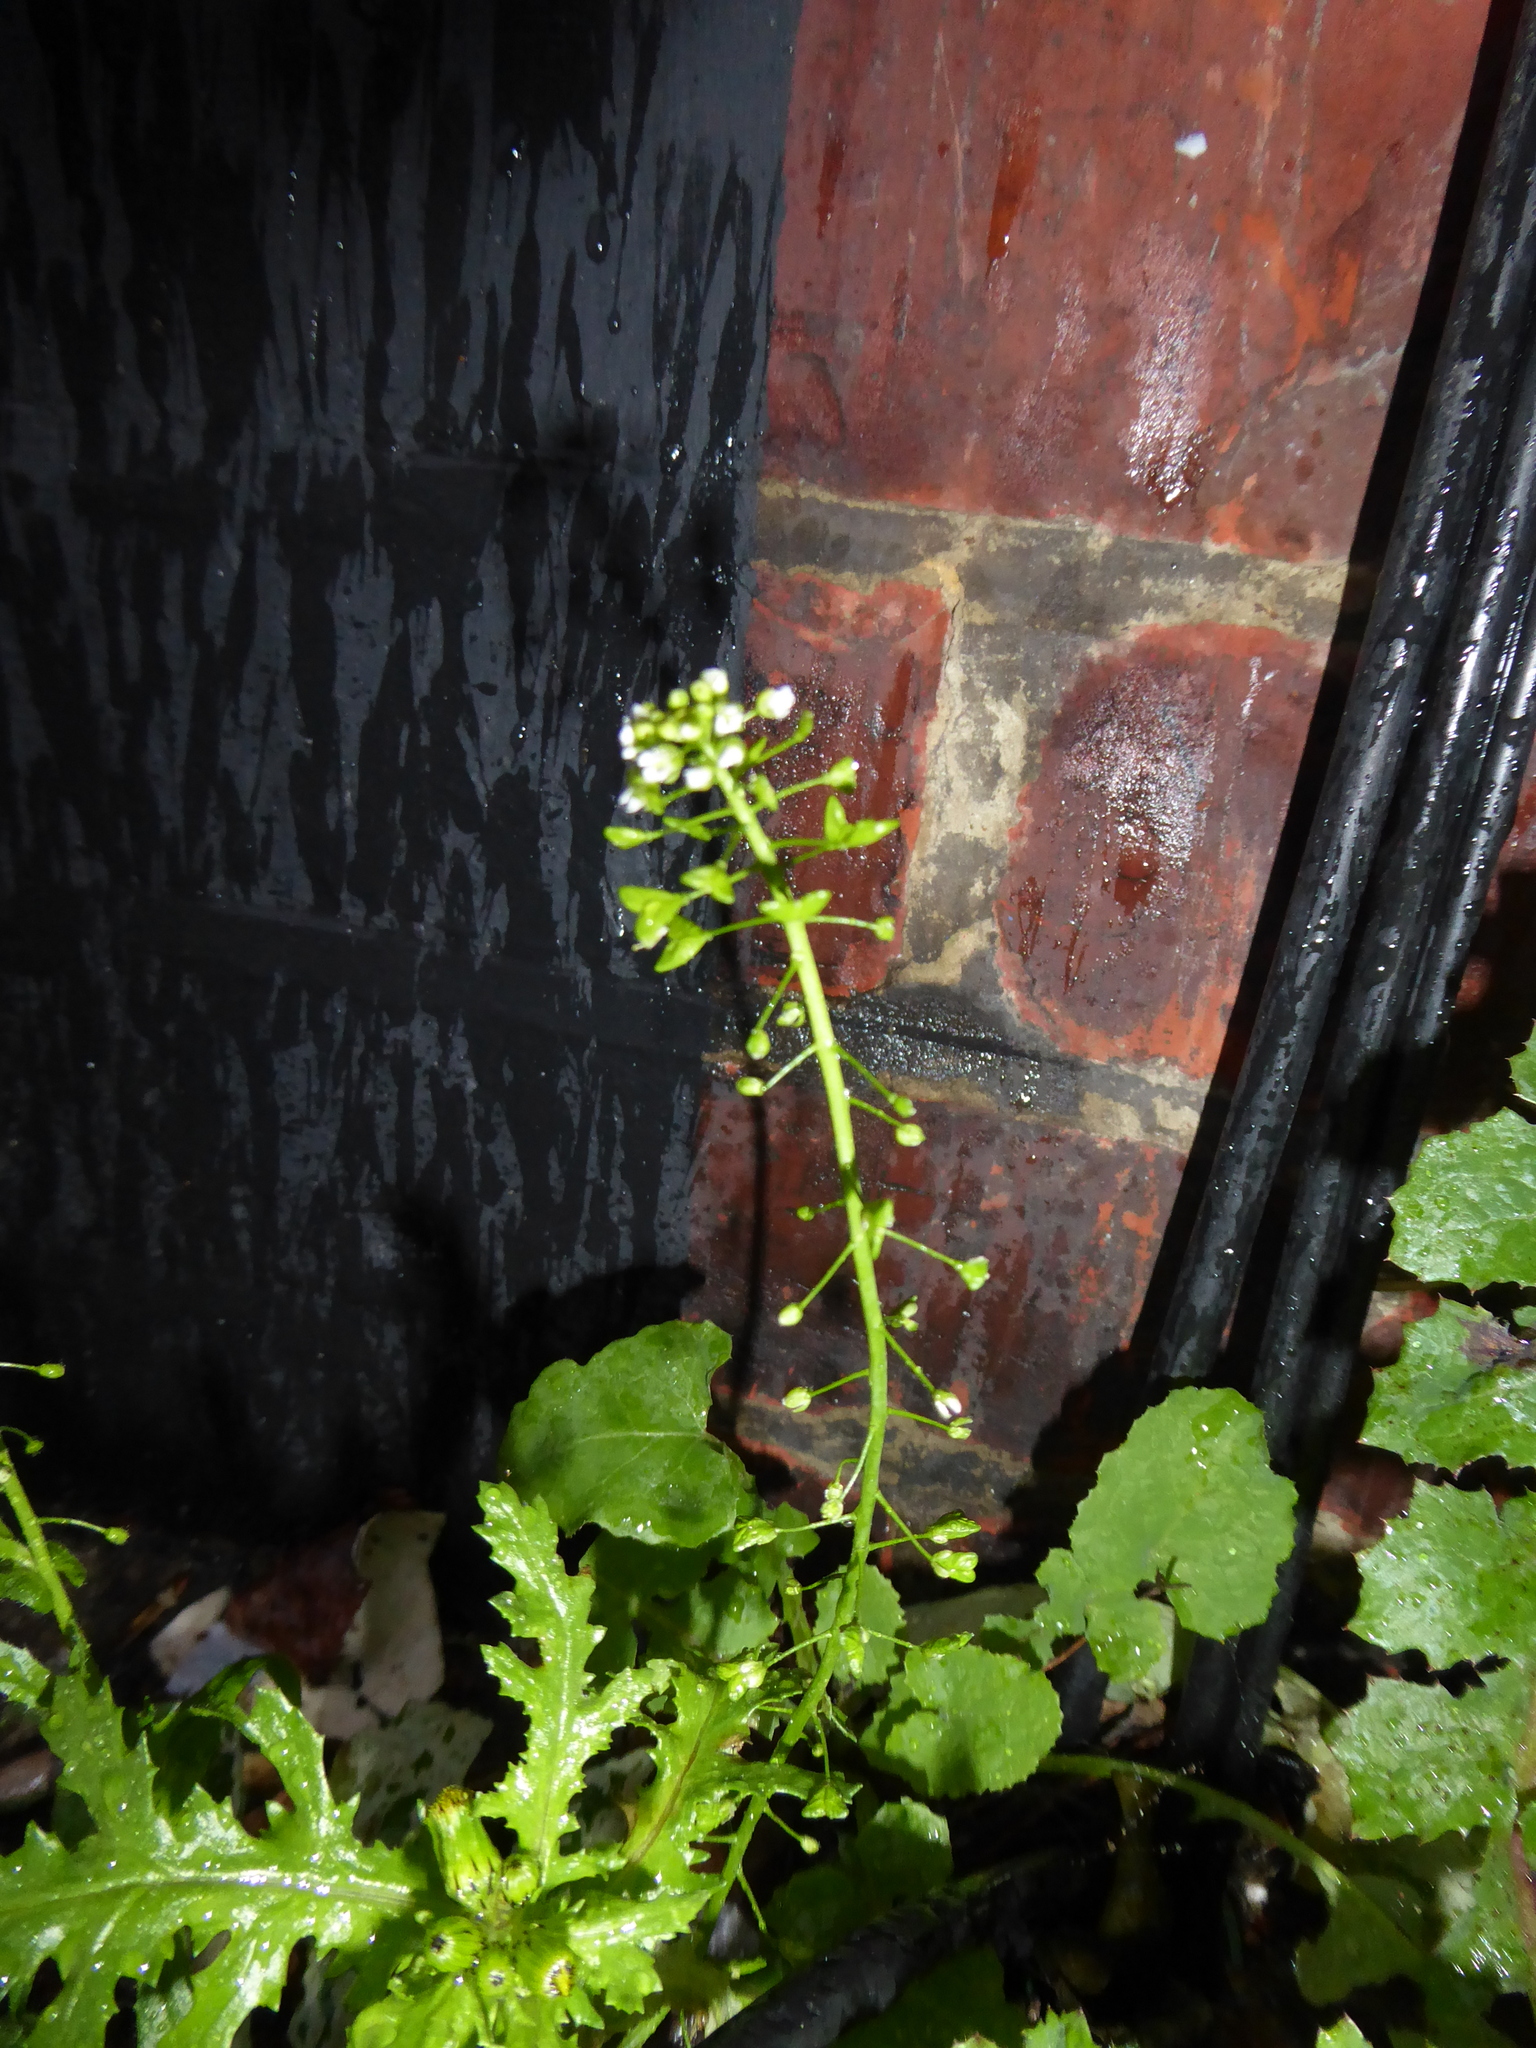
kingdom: Plantae
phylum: Tracheophyta
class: Magnoliopsida
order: Brassicales
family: Brassicaceae
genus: Capsella
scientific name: Capsella bursa-pastoris
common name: Shepherd's purse
